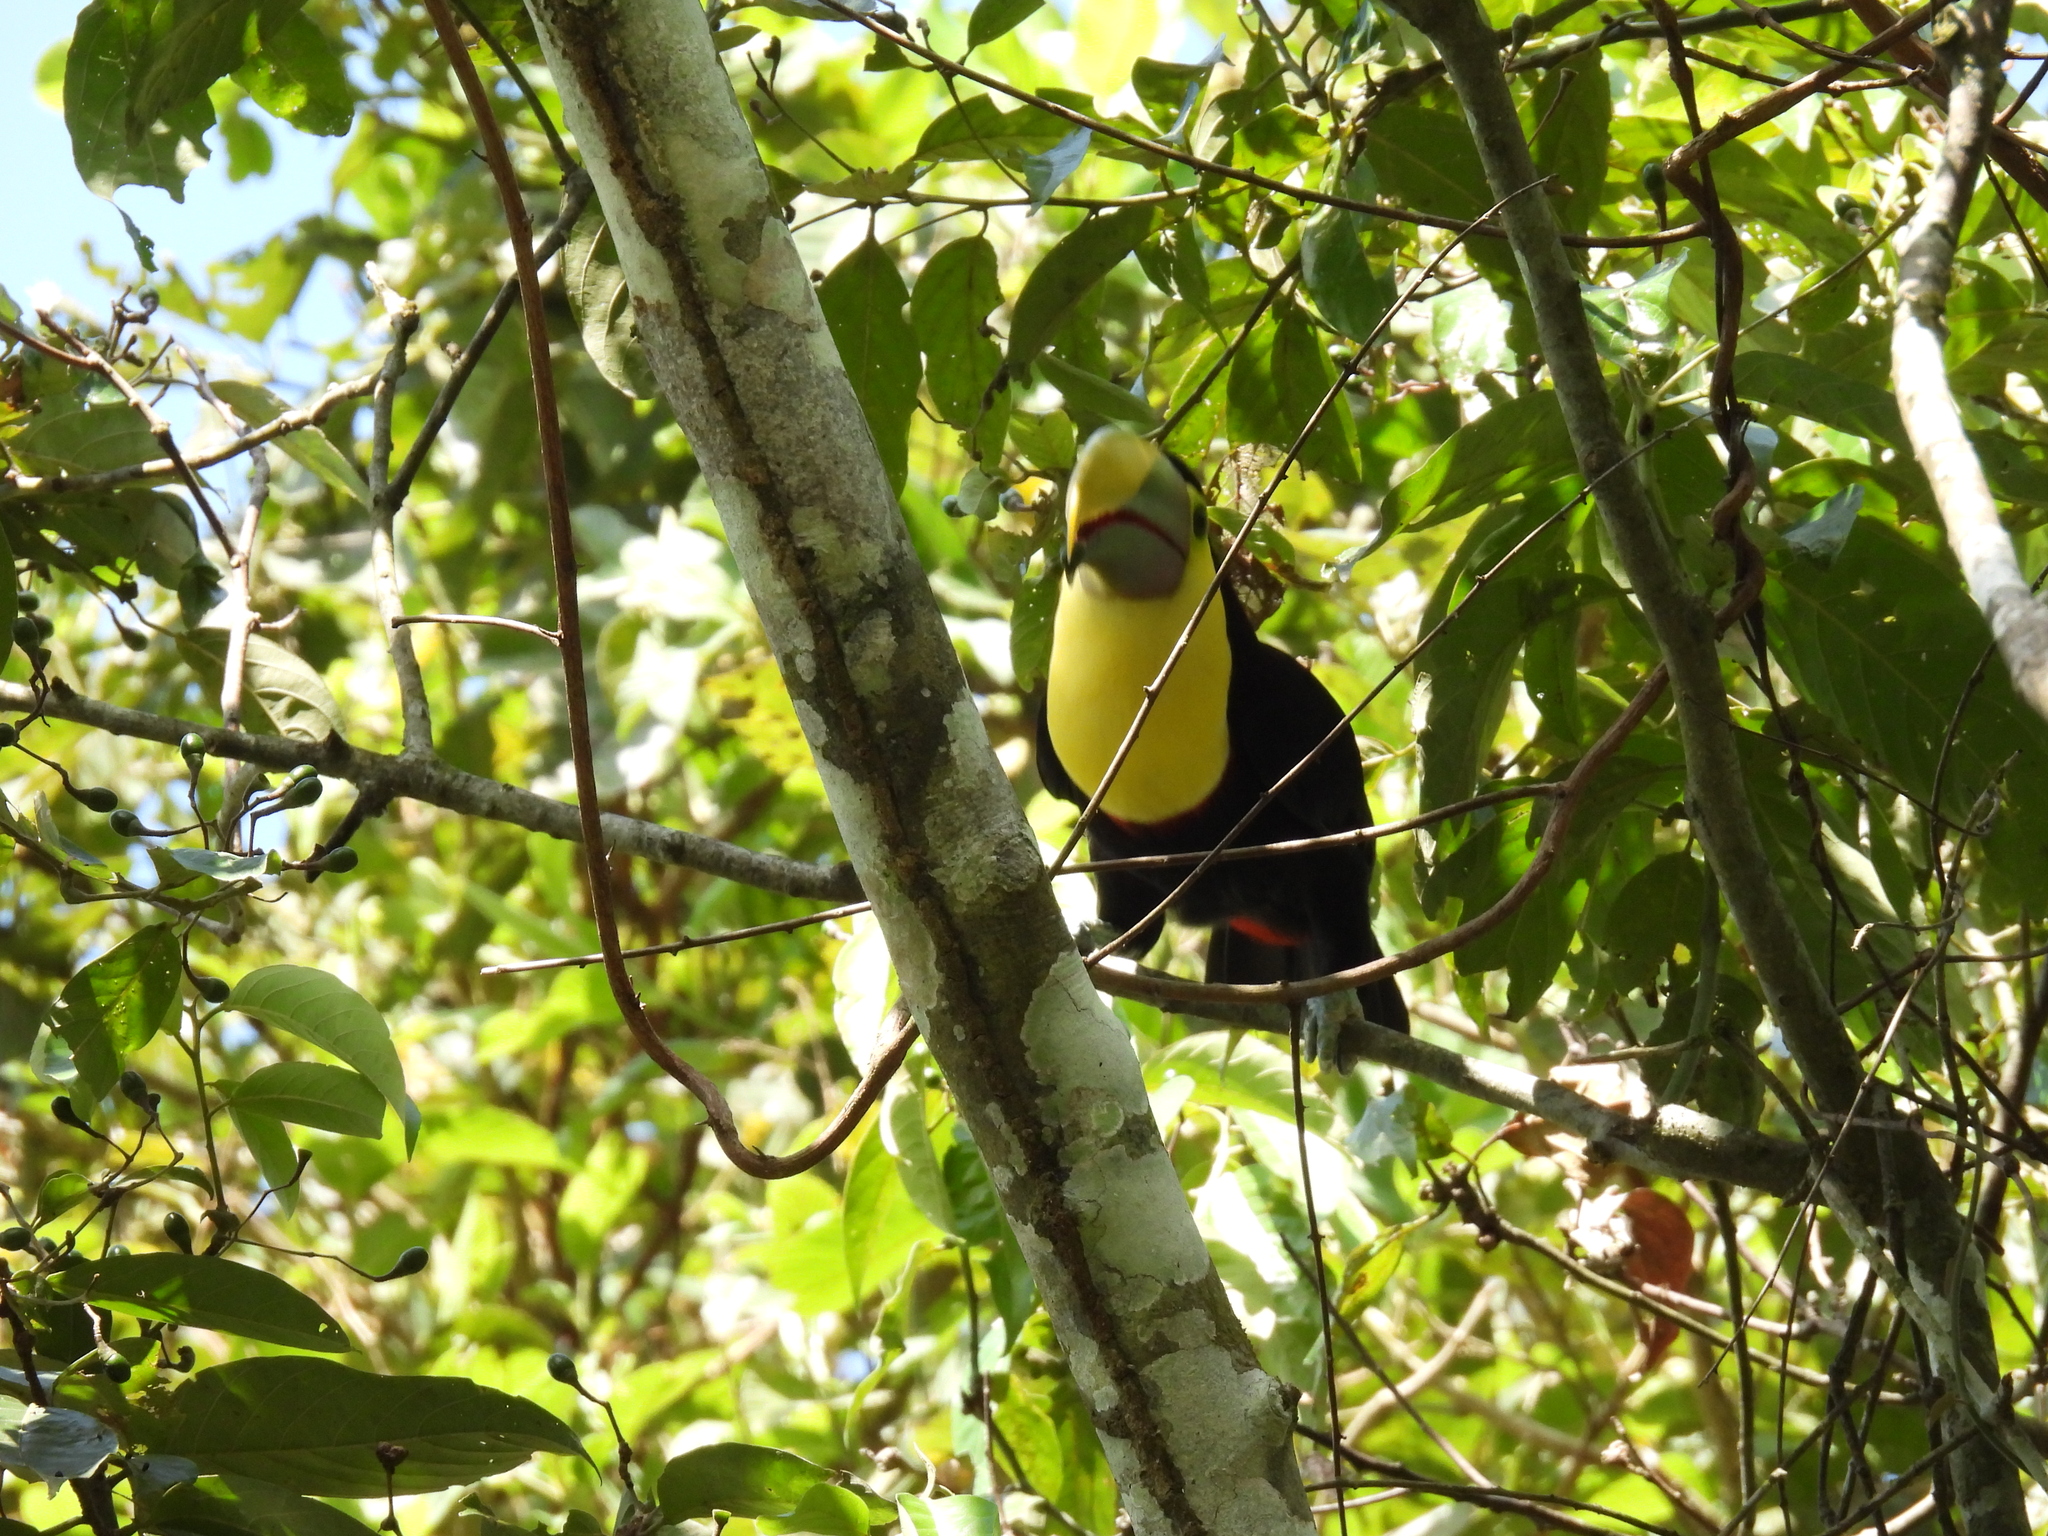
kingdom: Animalia
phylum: Chordata
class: Aves
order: Piciformes
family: Ramphastidae
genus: Ramphastos
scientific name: Ramphastos ambiguus
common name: Yellow-throated toucan
